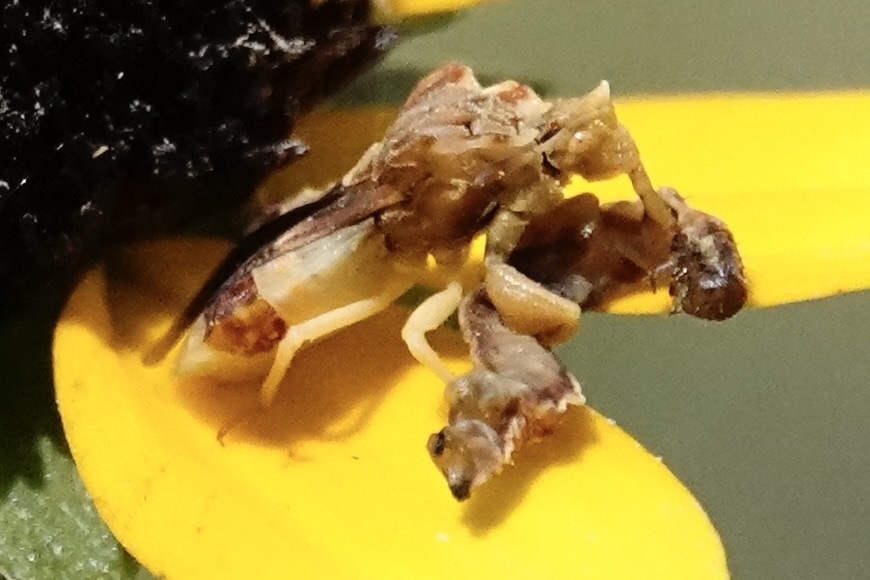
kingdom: Animalia
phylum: Arthropoda
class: Insecta
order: Hemiptera
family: Reduviidae
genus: Phymata
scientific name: Phymata fasciata
